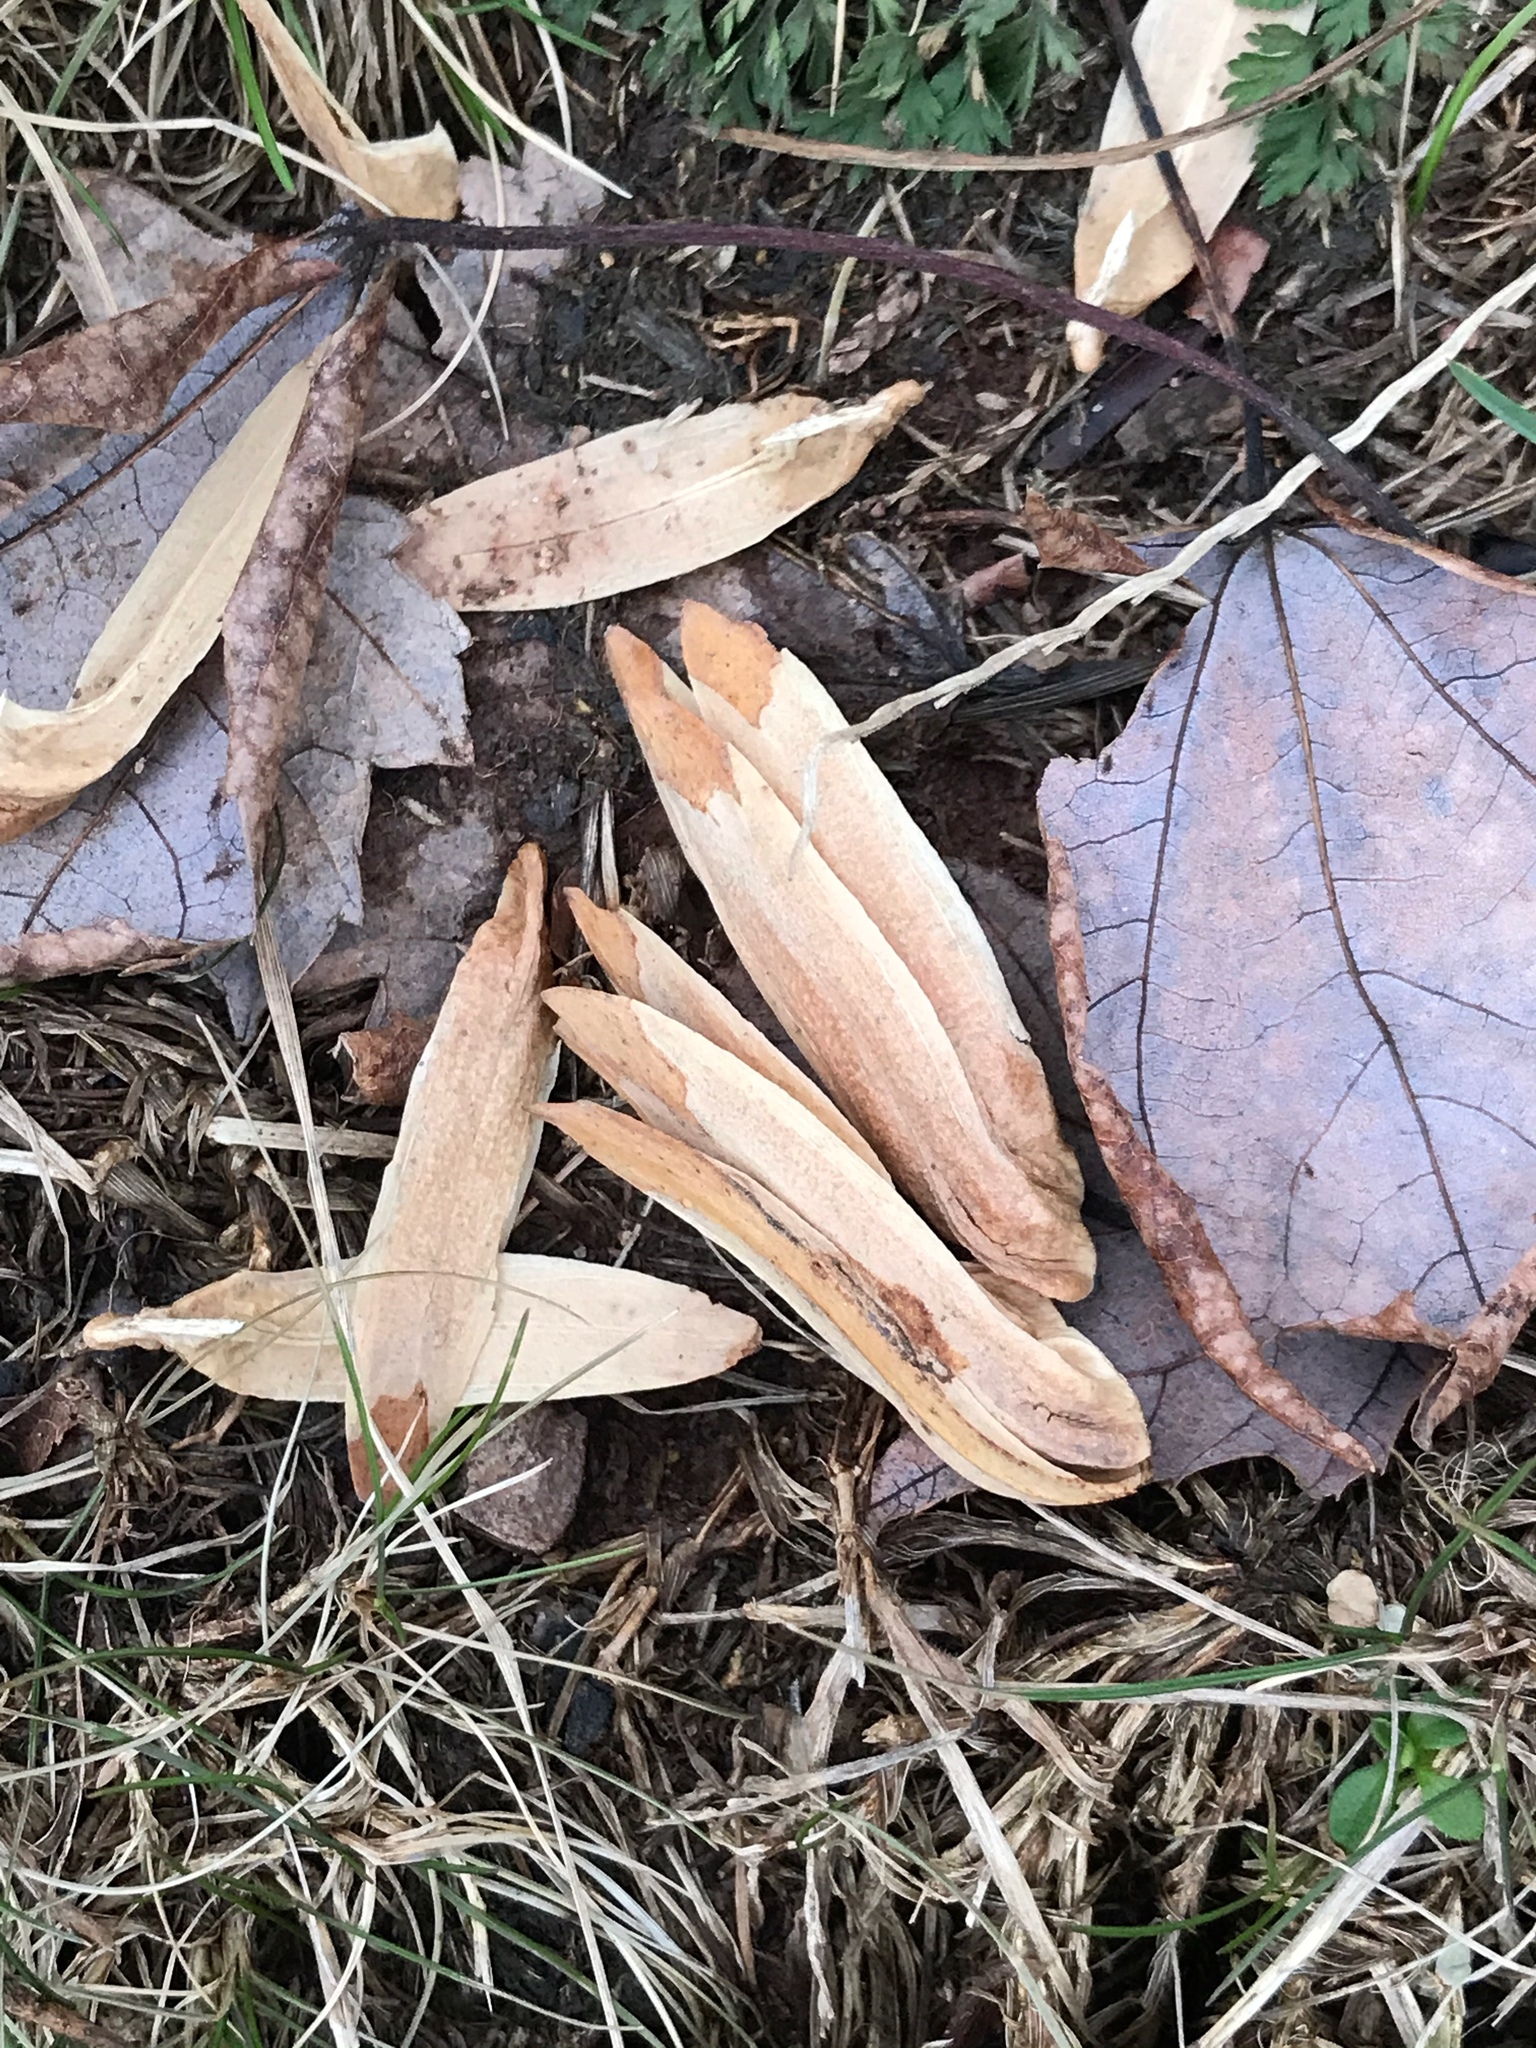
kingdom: Plantae
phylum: Tracheophyta
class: Magnoliopsida
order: Magnoliales
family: Magnoliaceae
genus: Liriodendron
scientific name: Liriodendron tulipifera
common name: Tulip tree
